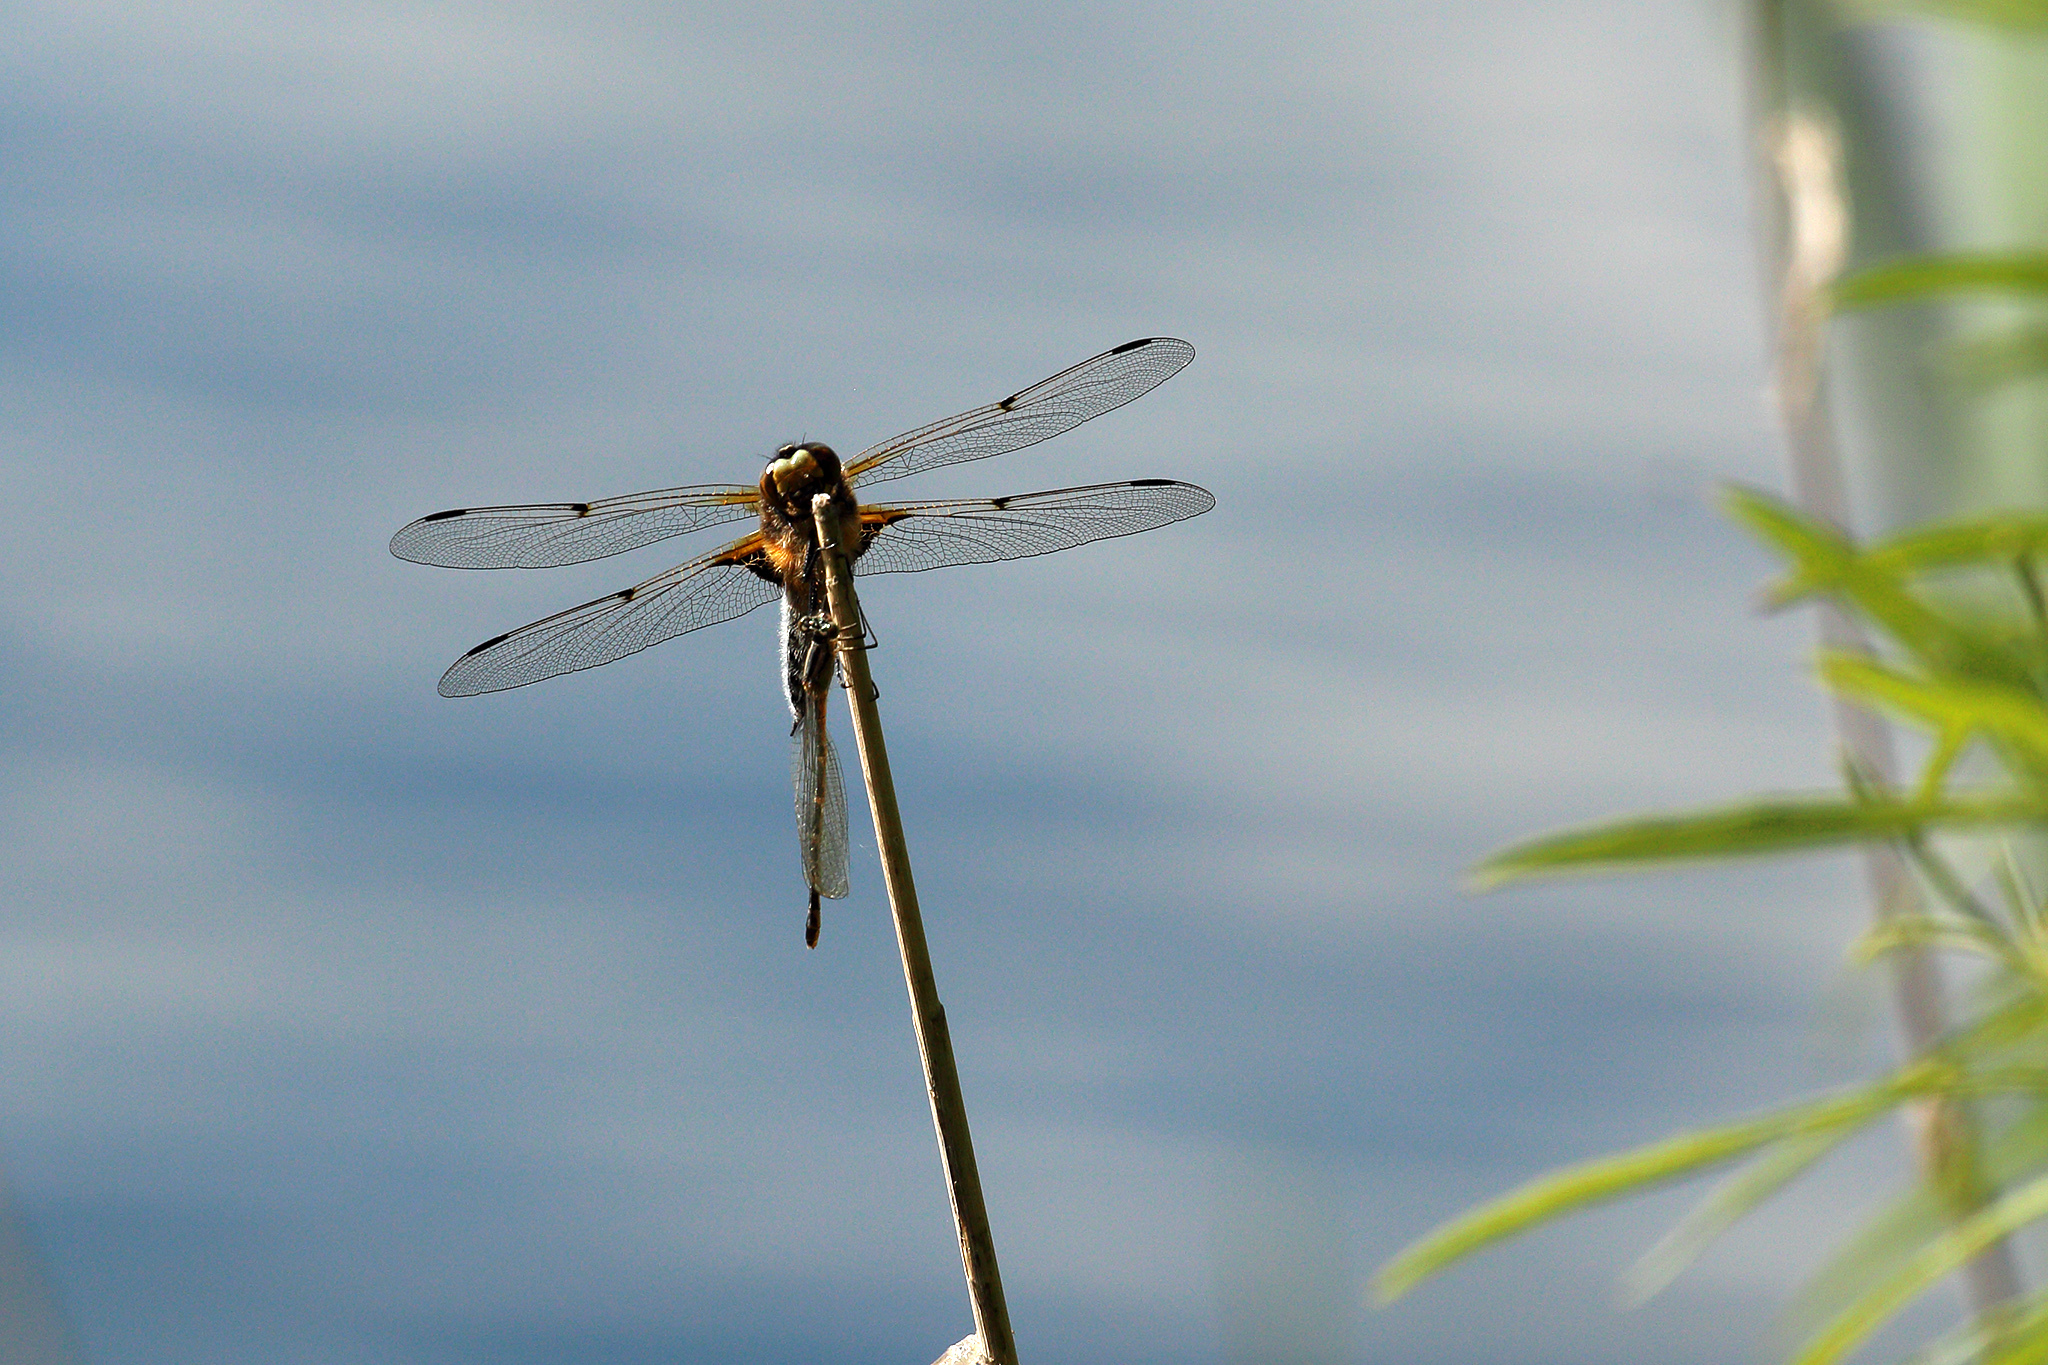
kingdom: Animalia
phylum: Arthropoda
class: Insecta
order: Odonata
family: Libellulidae
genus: Libellula
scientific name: Libellula quadrimaculata
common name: Four-spotted chaser
